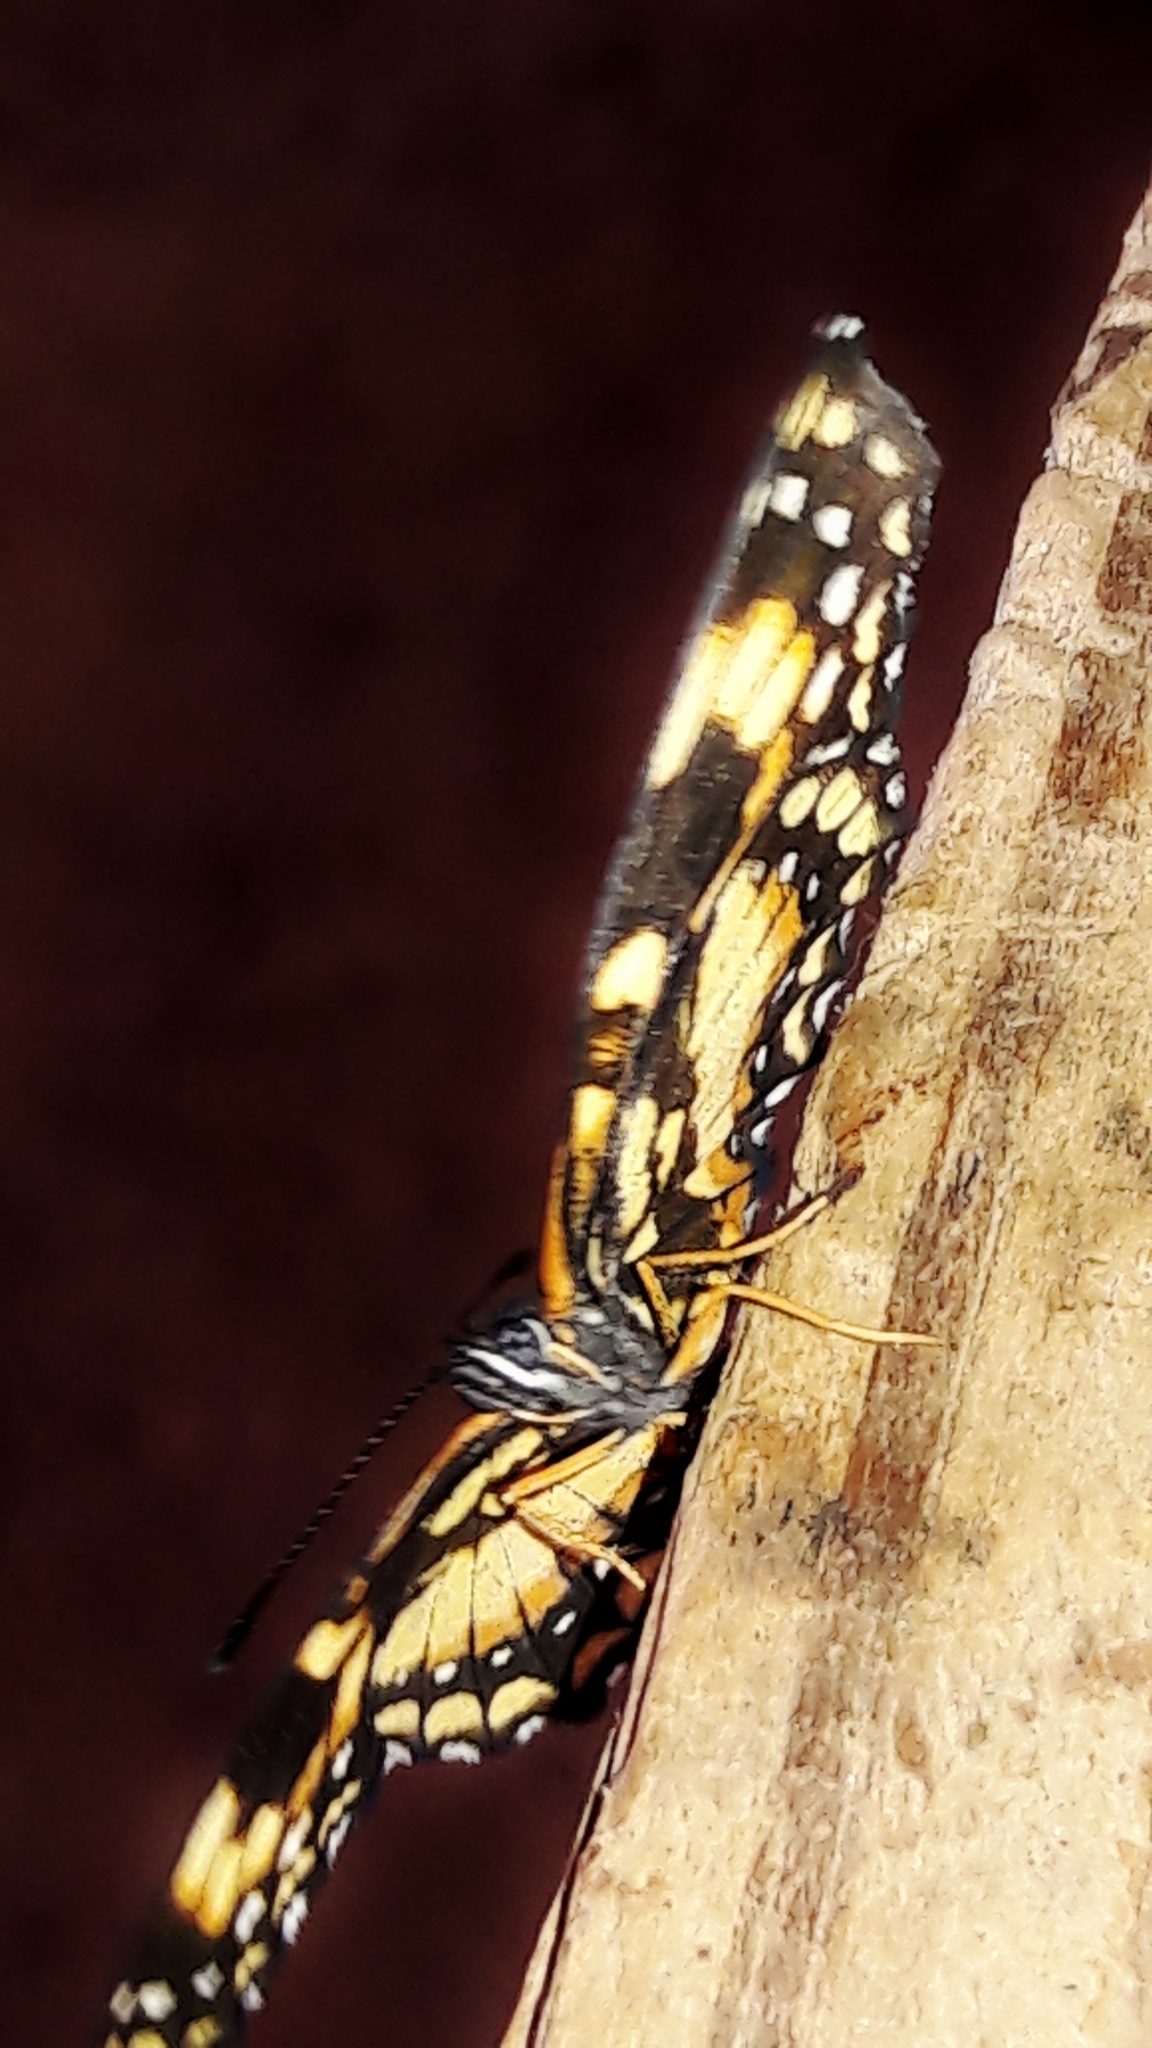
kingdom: Animalia
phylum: Arthropoda
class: Insecta
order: Lepidoptera
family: Nymphalidae
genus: Chlosyne
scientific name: Chlosyne lacinia
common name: Bordered patch
